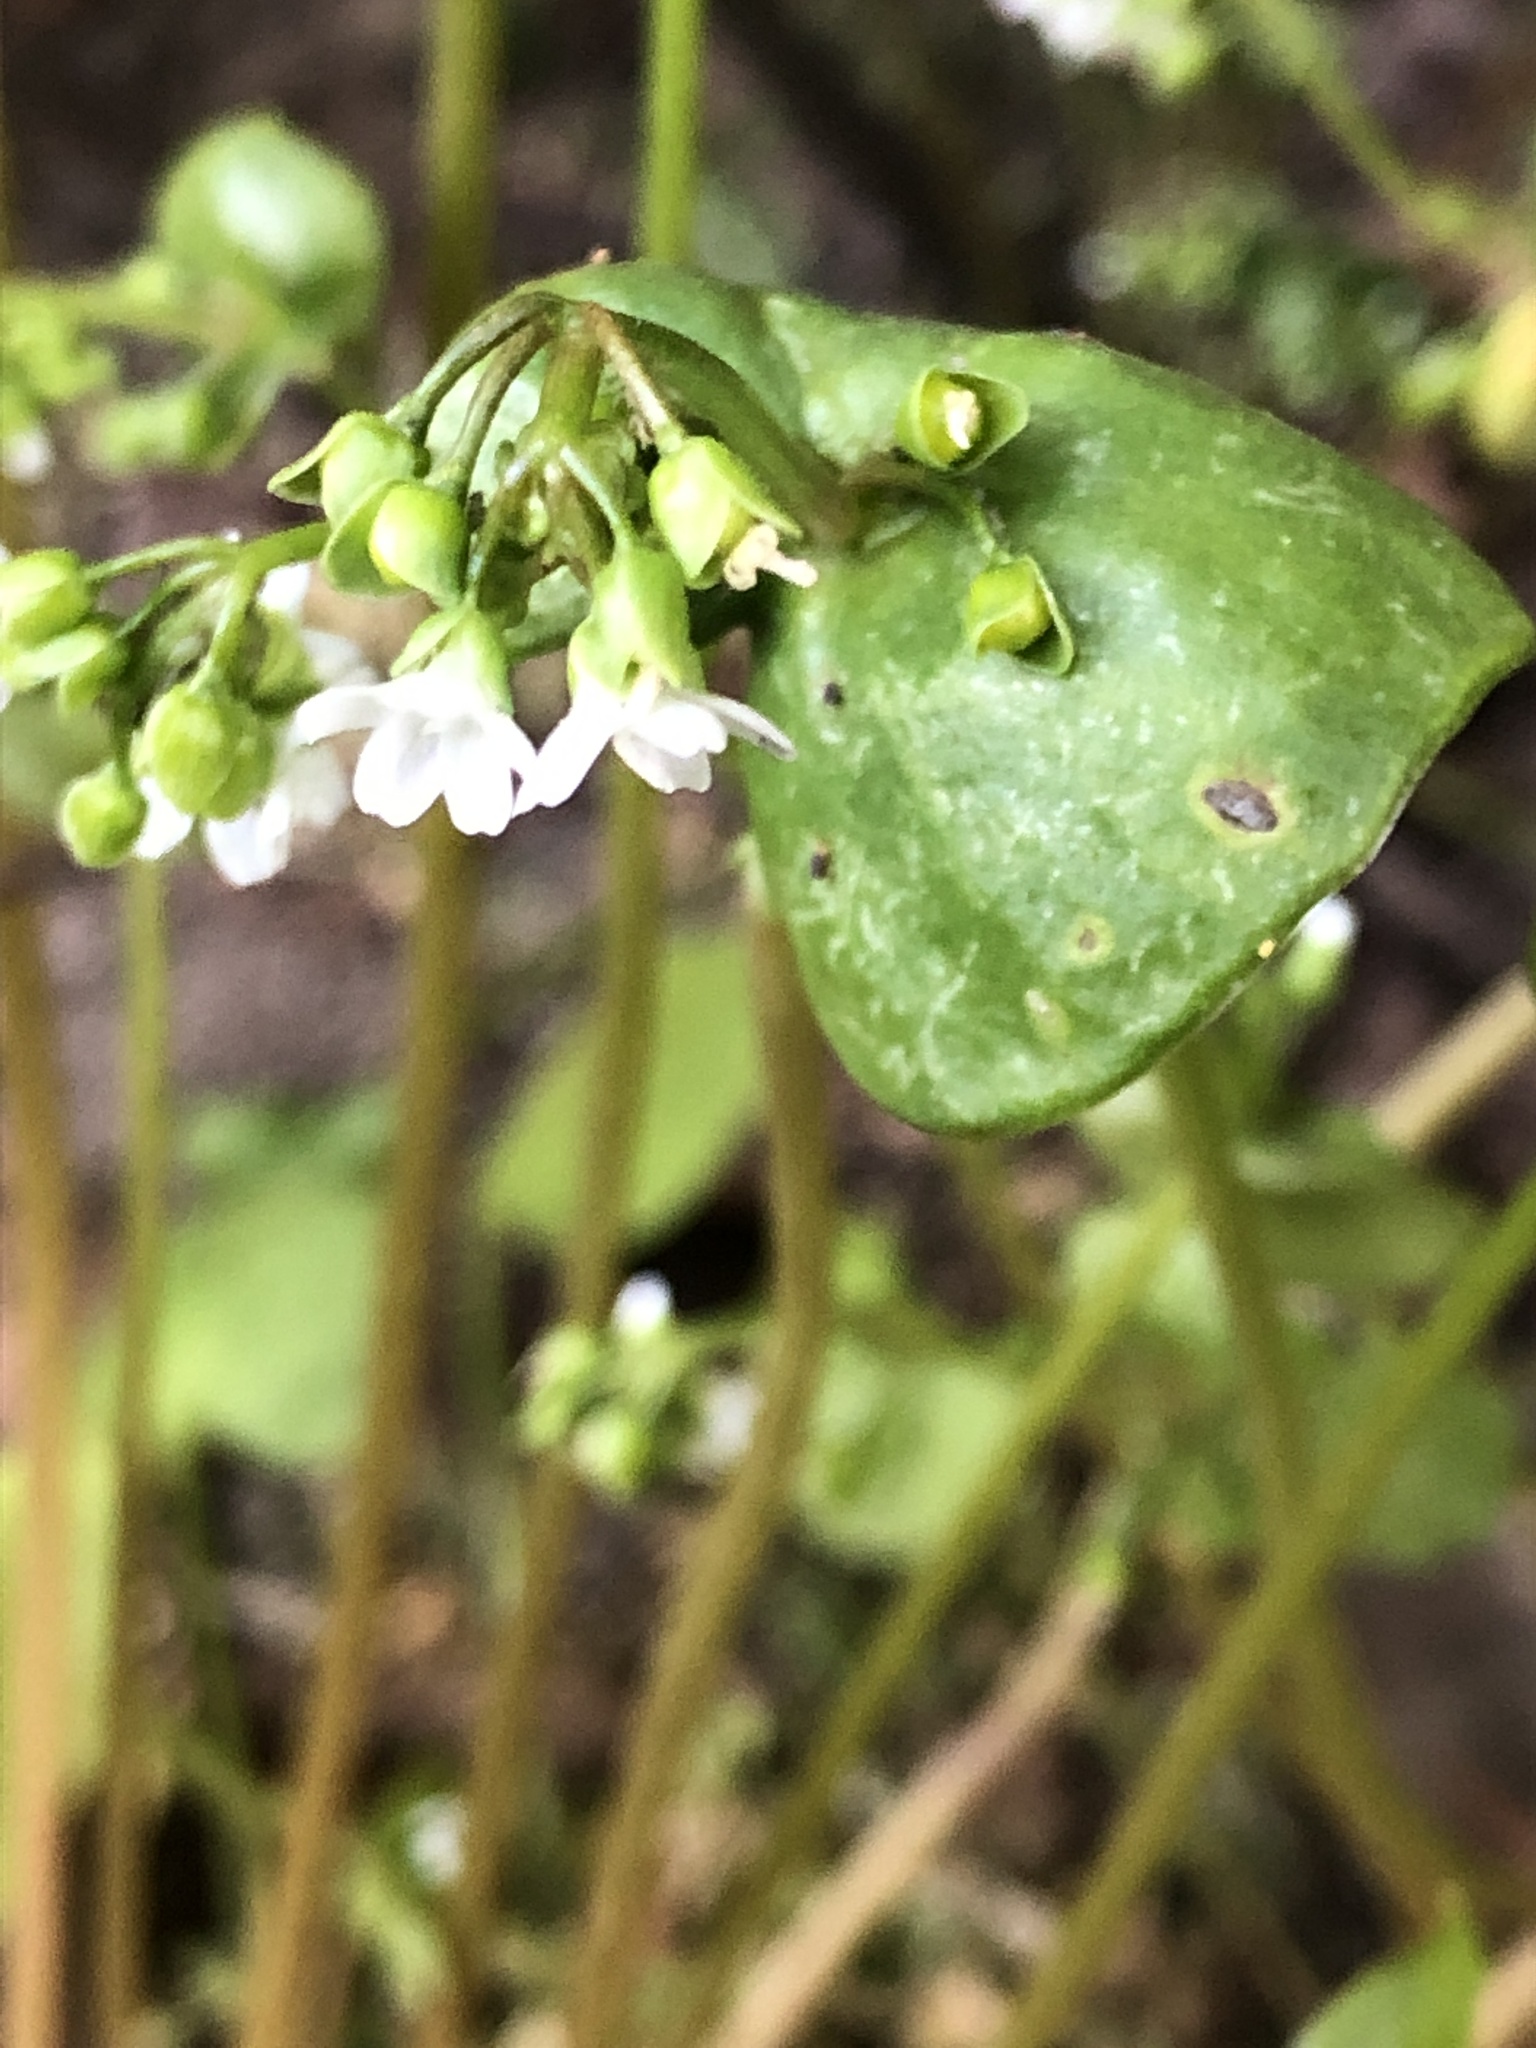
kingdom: Plantae
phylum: Tracheophyta
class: Magnoliopsida
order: Caryophyllales
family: Montiaceae
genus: Claytonia
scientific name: Claytonia perfoliata
